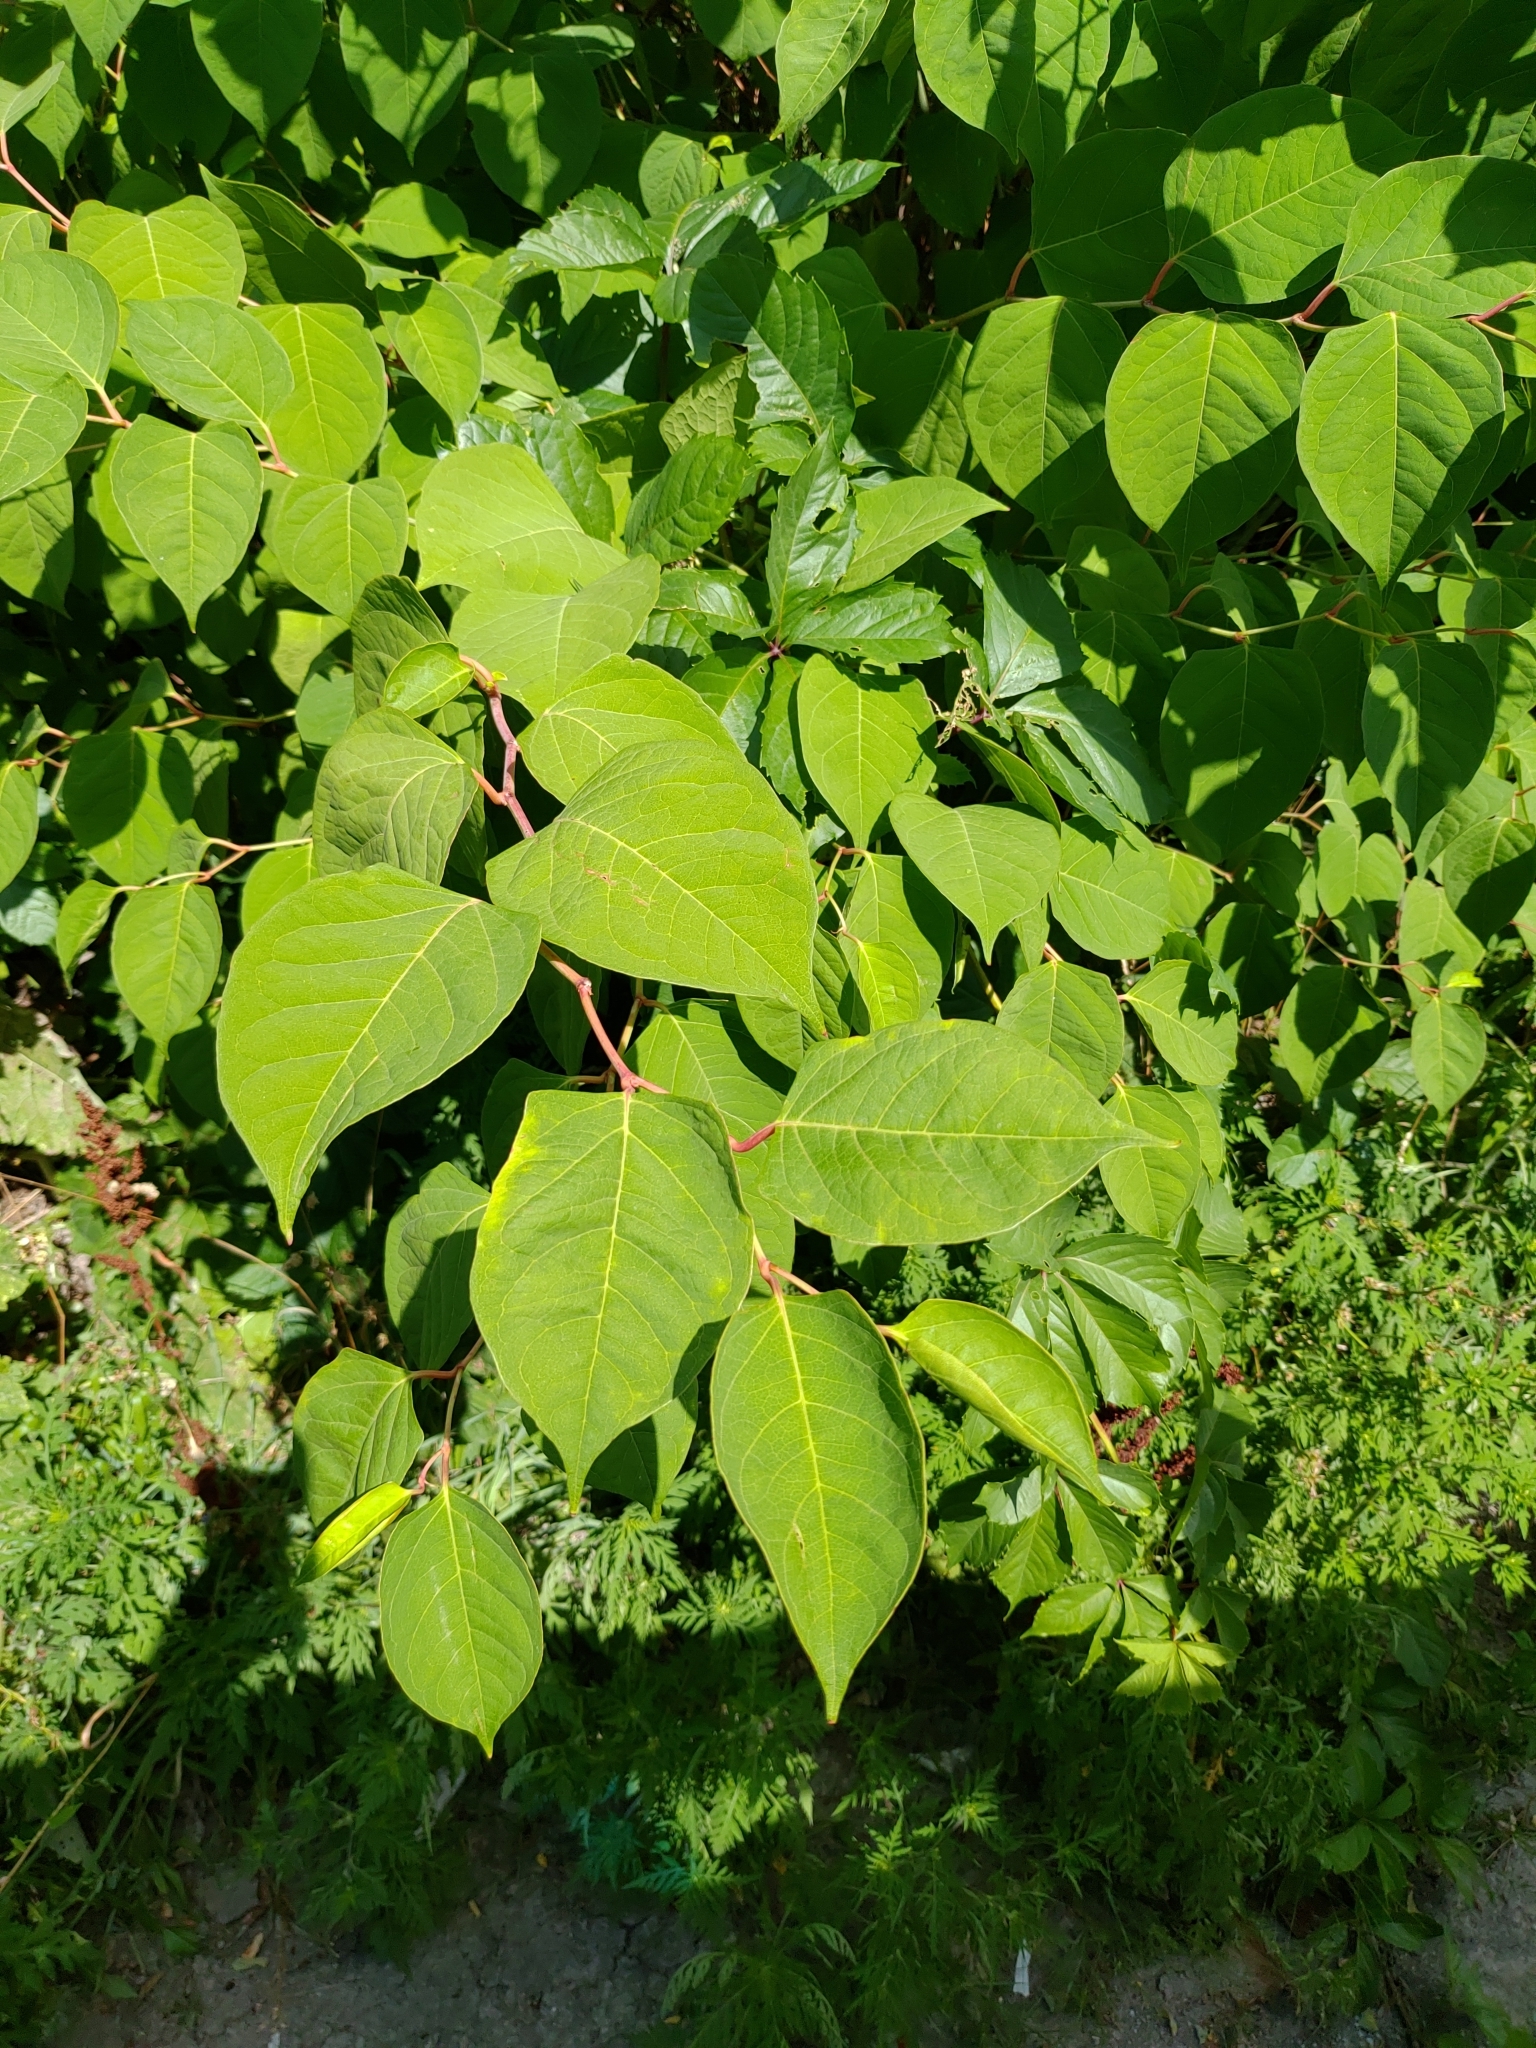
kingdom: Plantae
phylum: Tracheophyta
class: Magnoliopsida
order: Caryophyllales
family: Polygonaceae
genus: Reynoutria
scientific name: Reynoutria japonica
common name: Japanese knotweed
